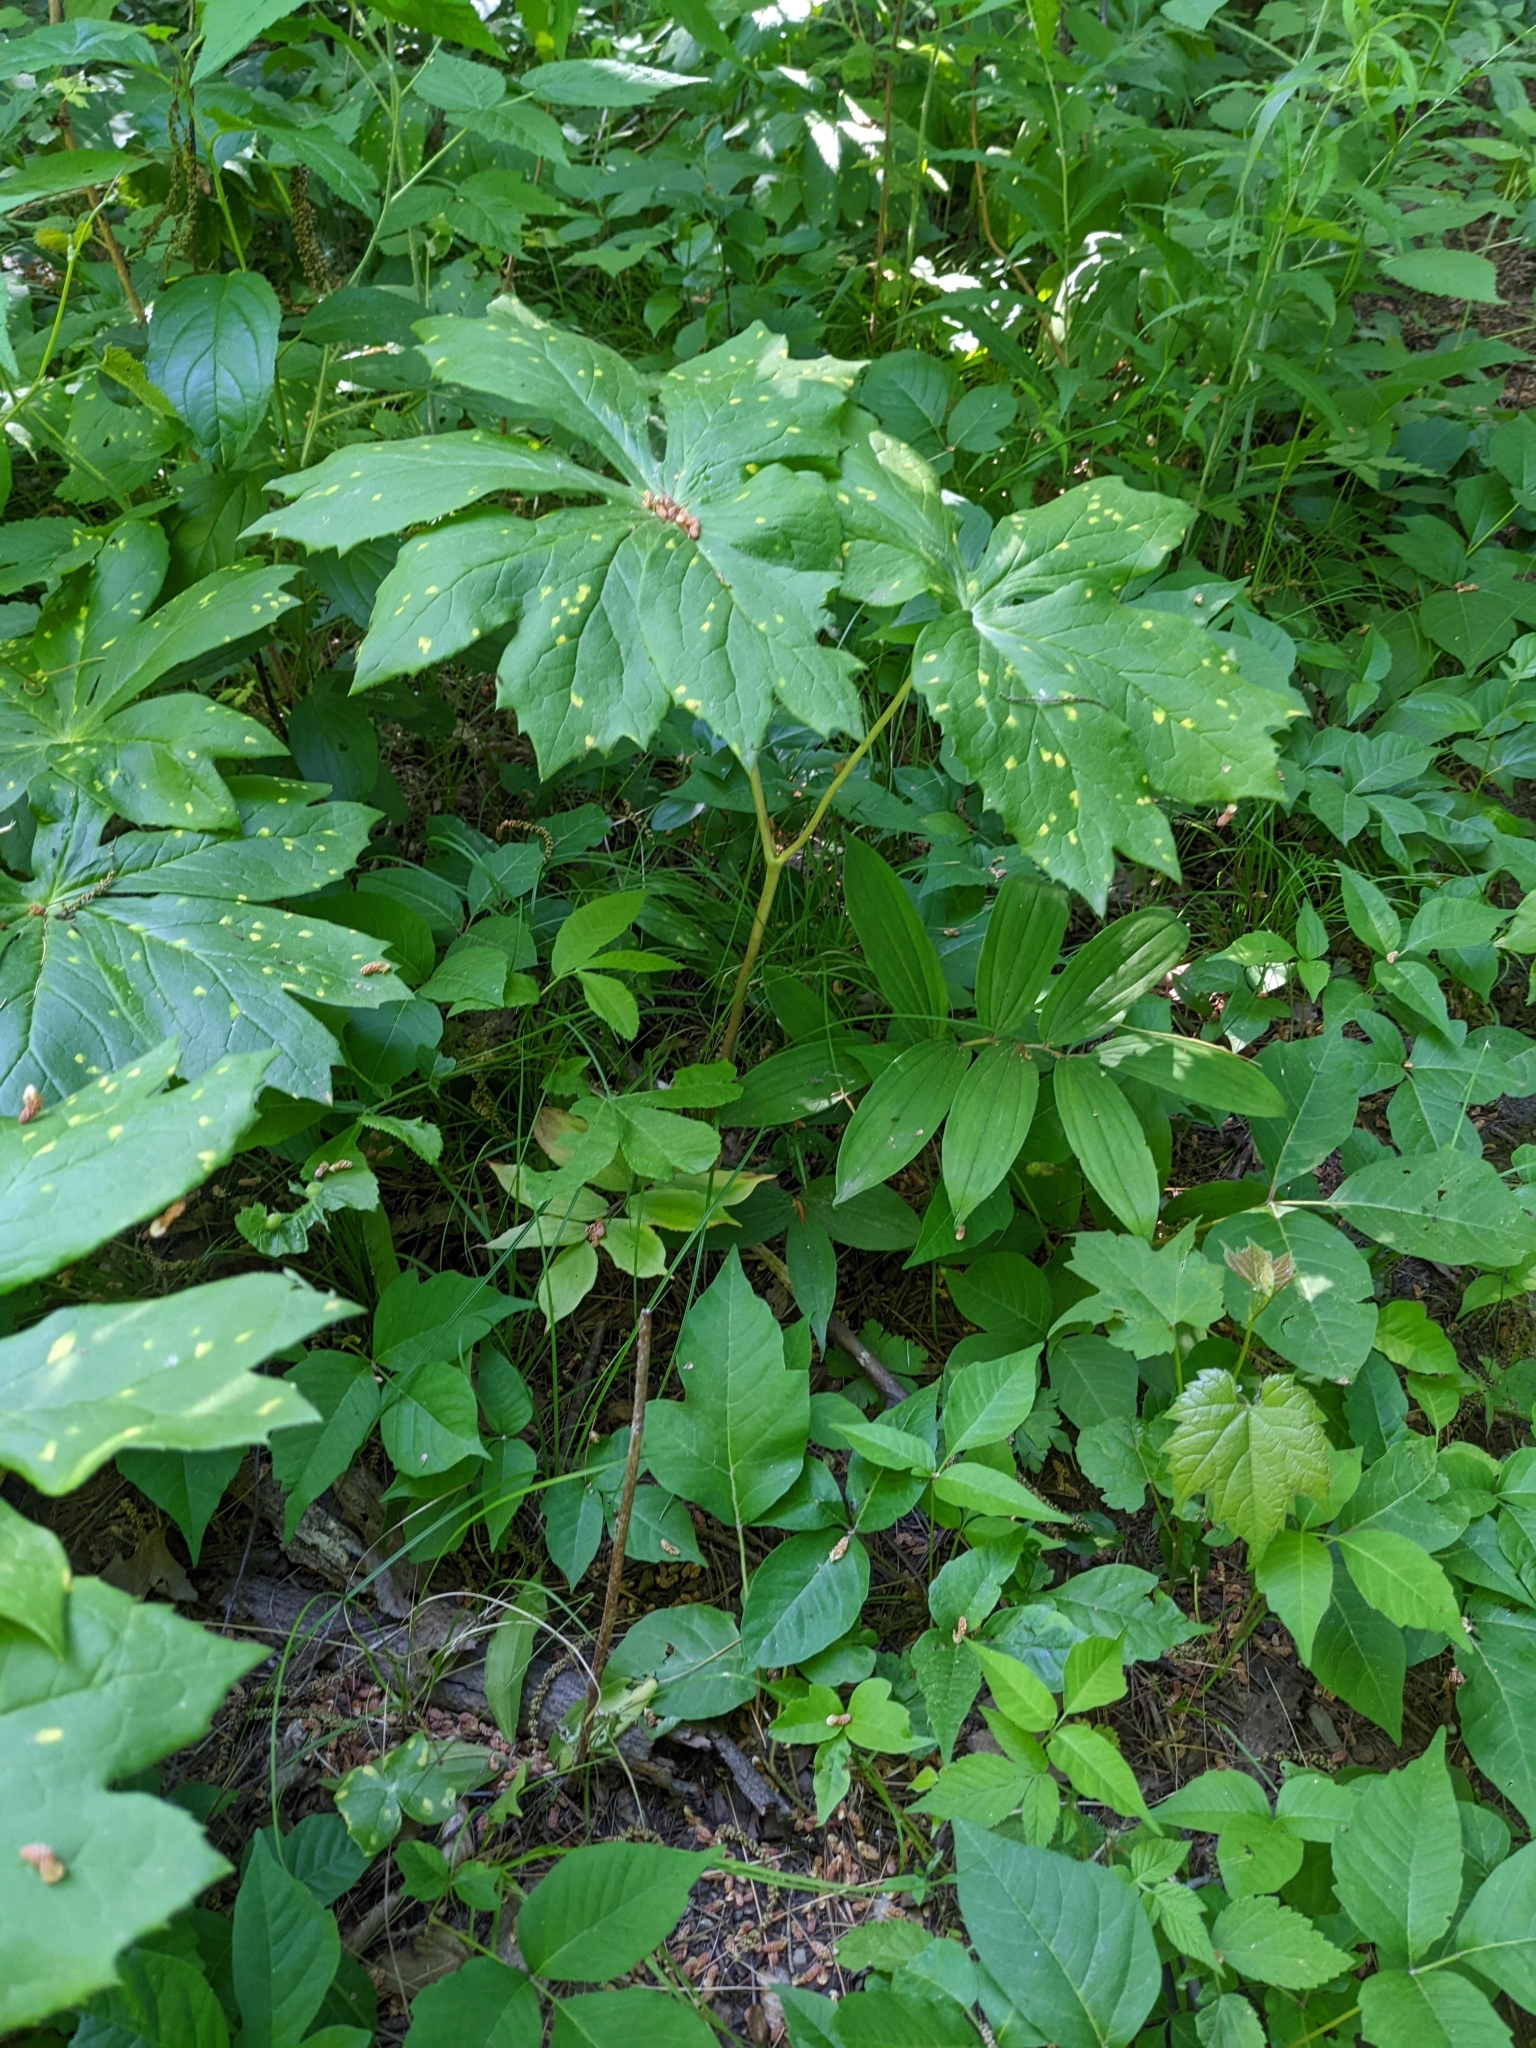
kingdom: Fungi
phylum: Basidiomycota
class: Pucciniomycetes
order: Pucciniales
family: Pucciniaceae
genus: Puccinia
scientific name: Puccinia podophylli
